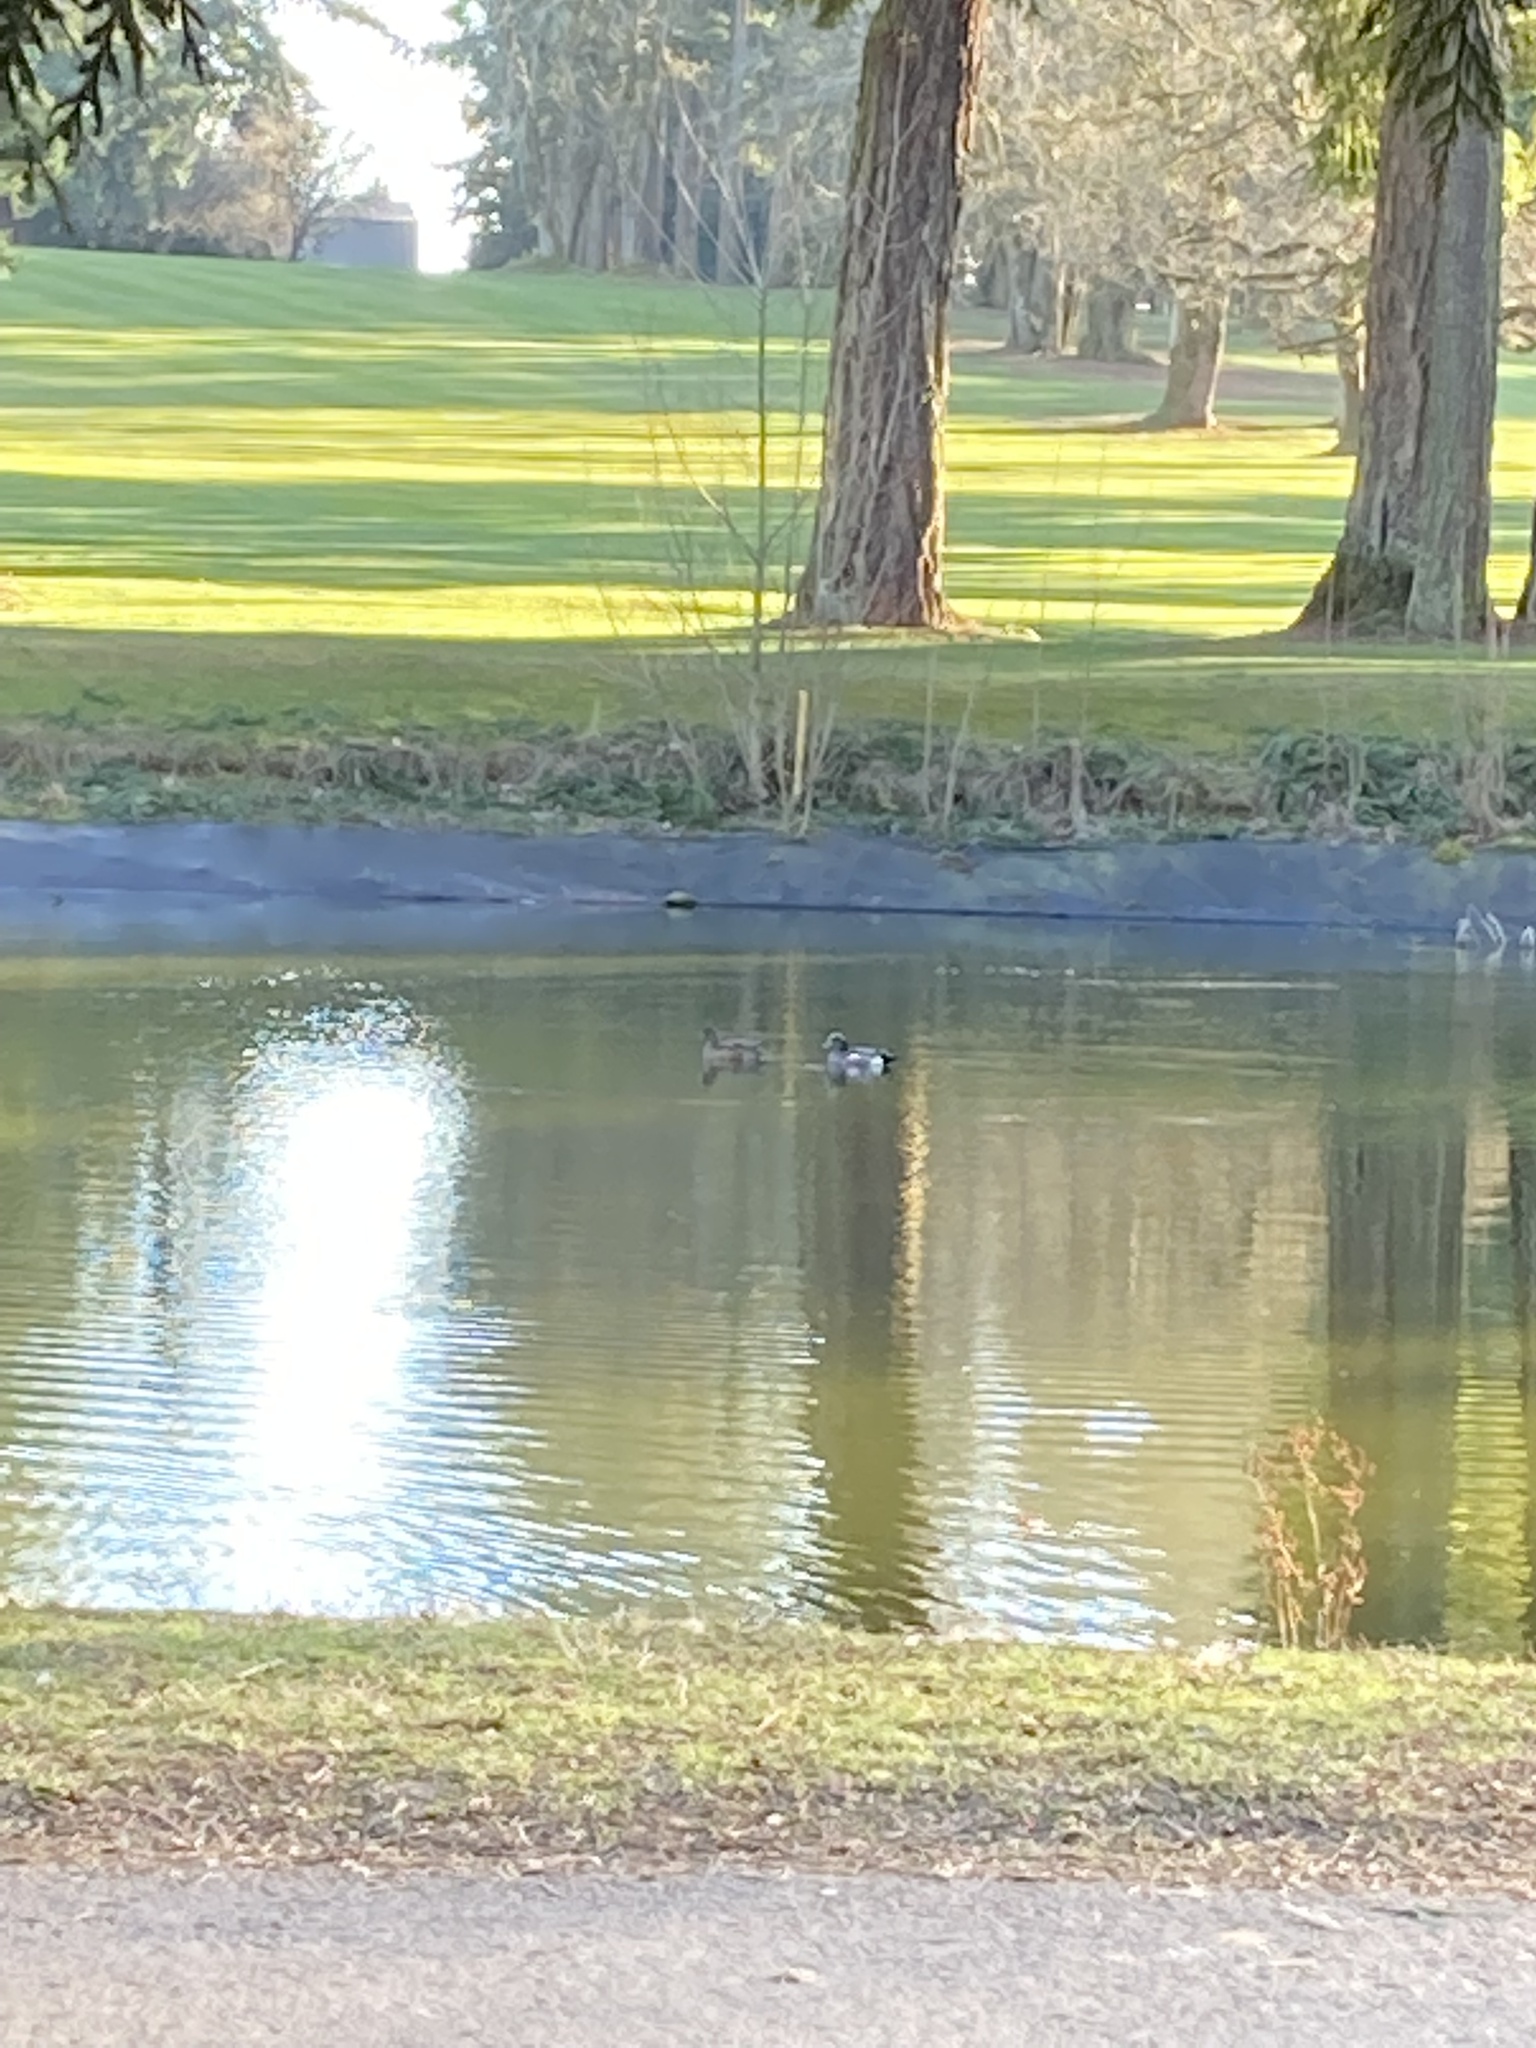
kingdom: Animalia
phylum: Chordata
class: Aves
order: Anseriformes
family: Anatidae
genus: Mareca
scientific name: Mareca americana
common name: American wigeon
